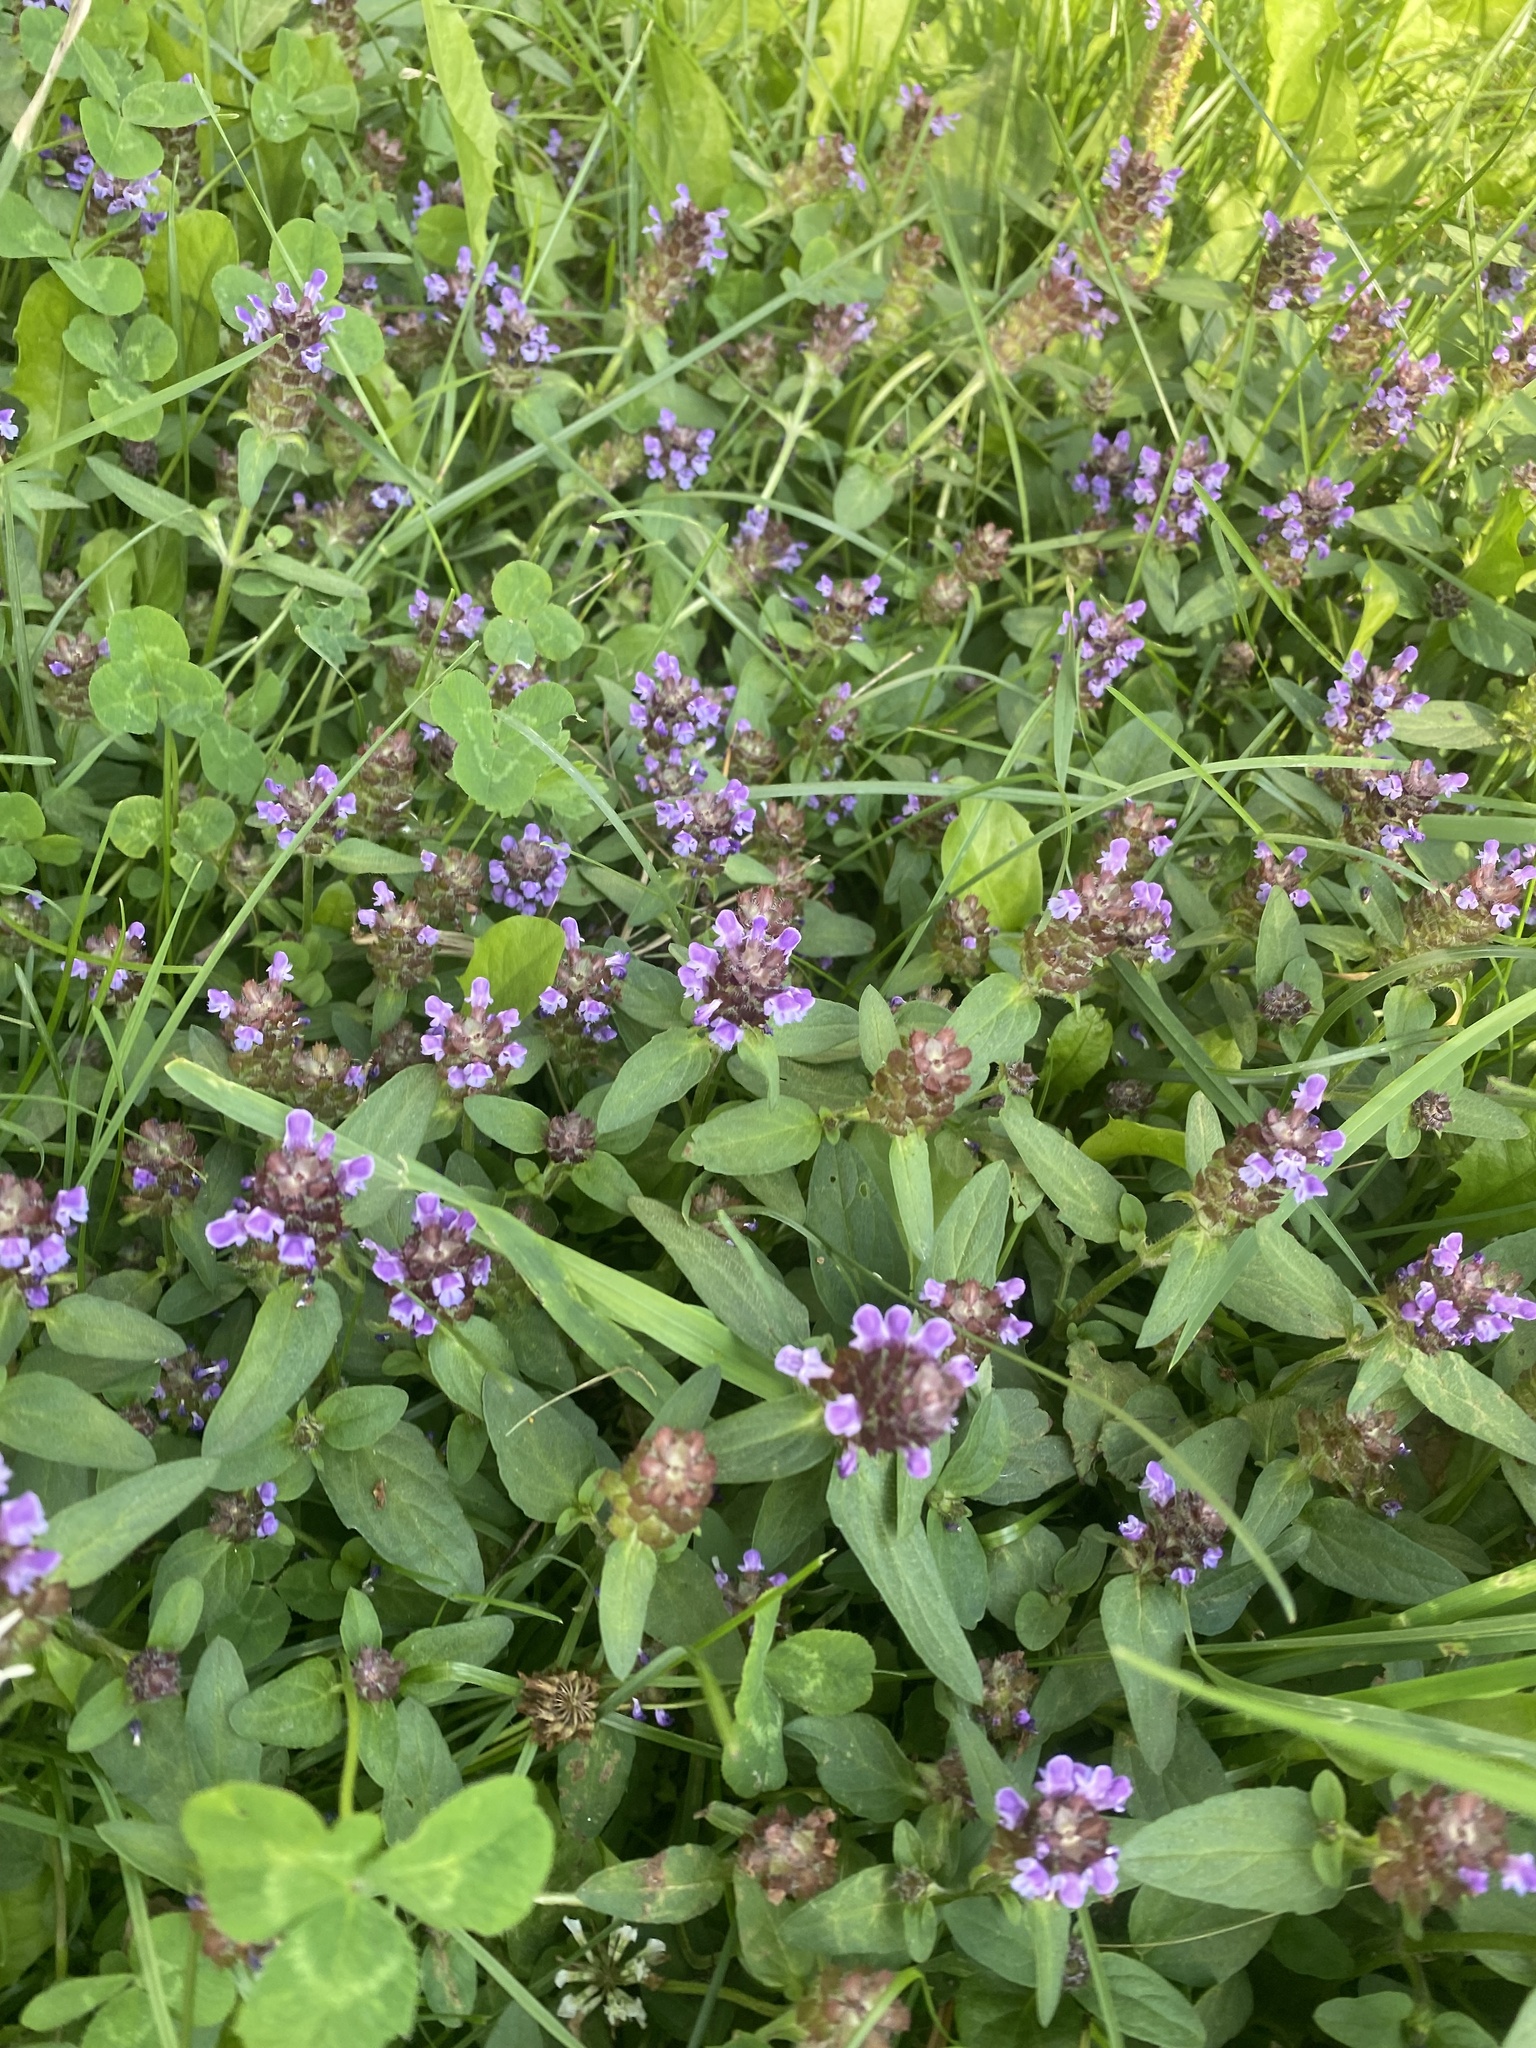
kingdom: Plantae
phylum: Tracheophyta
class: Magnoliopsida
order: Lamiales
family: Lamiaceae
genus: Prunella
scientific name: Prunella vulgaris
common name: Heal-all
